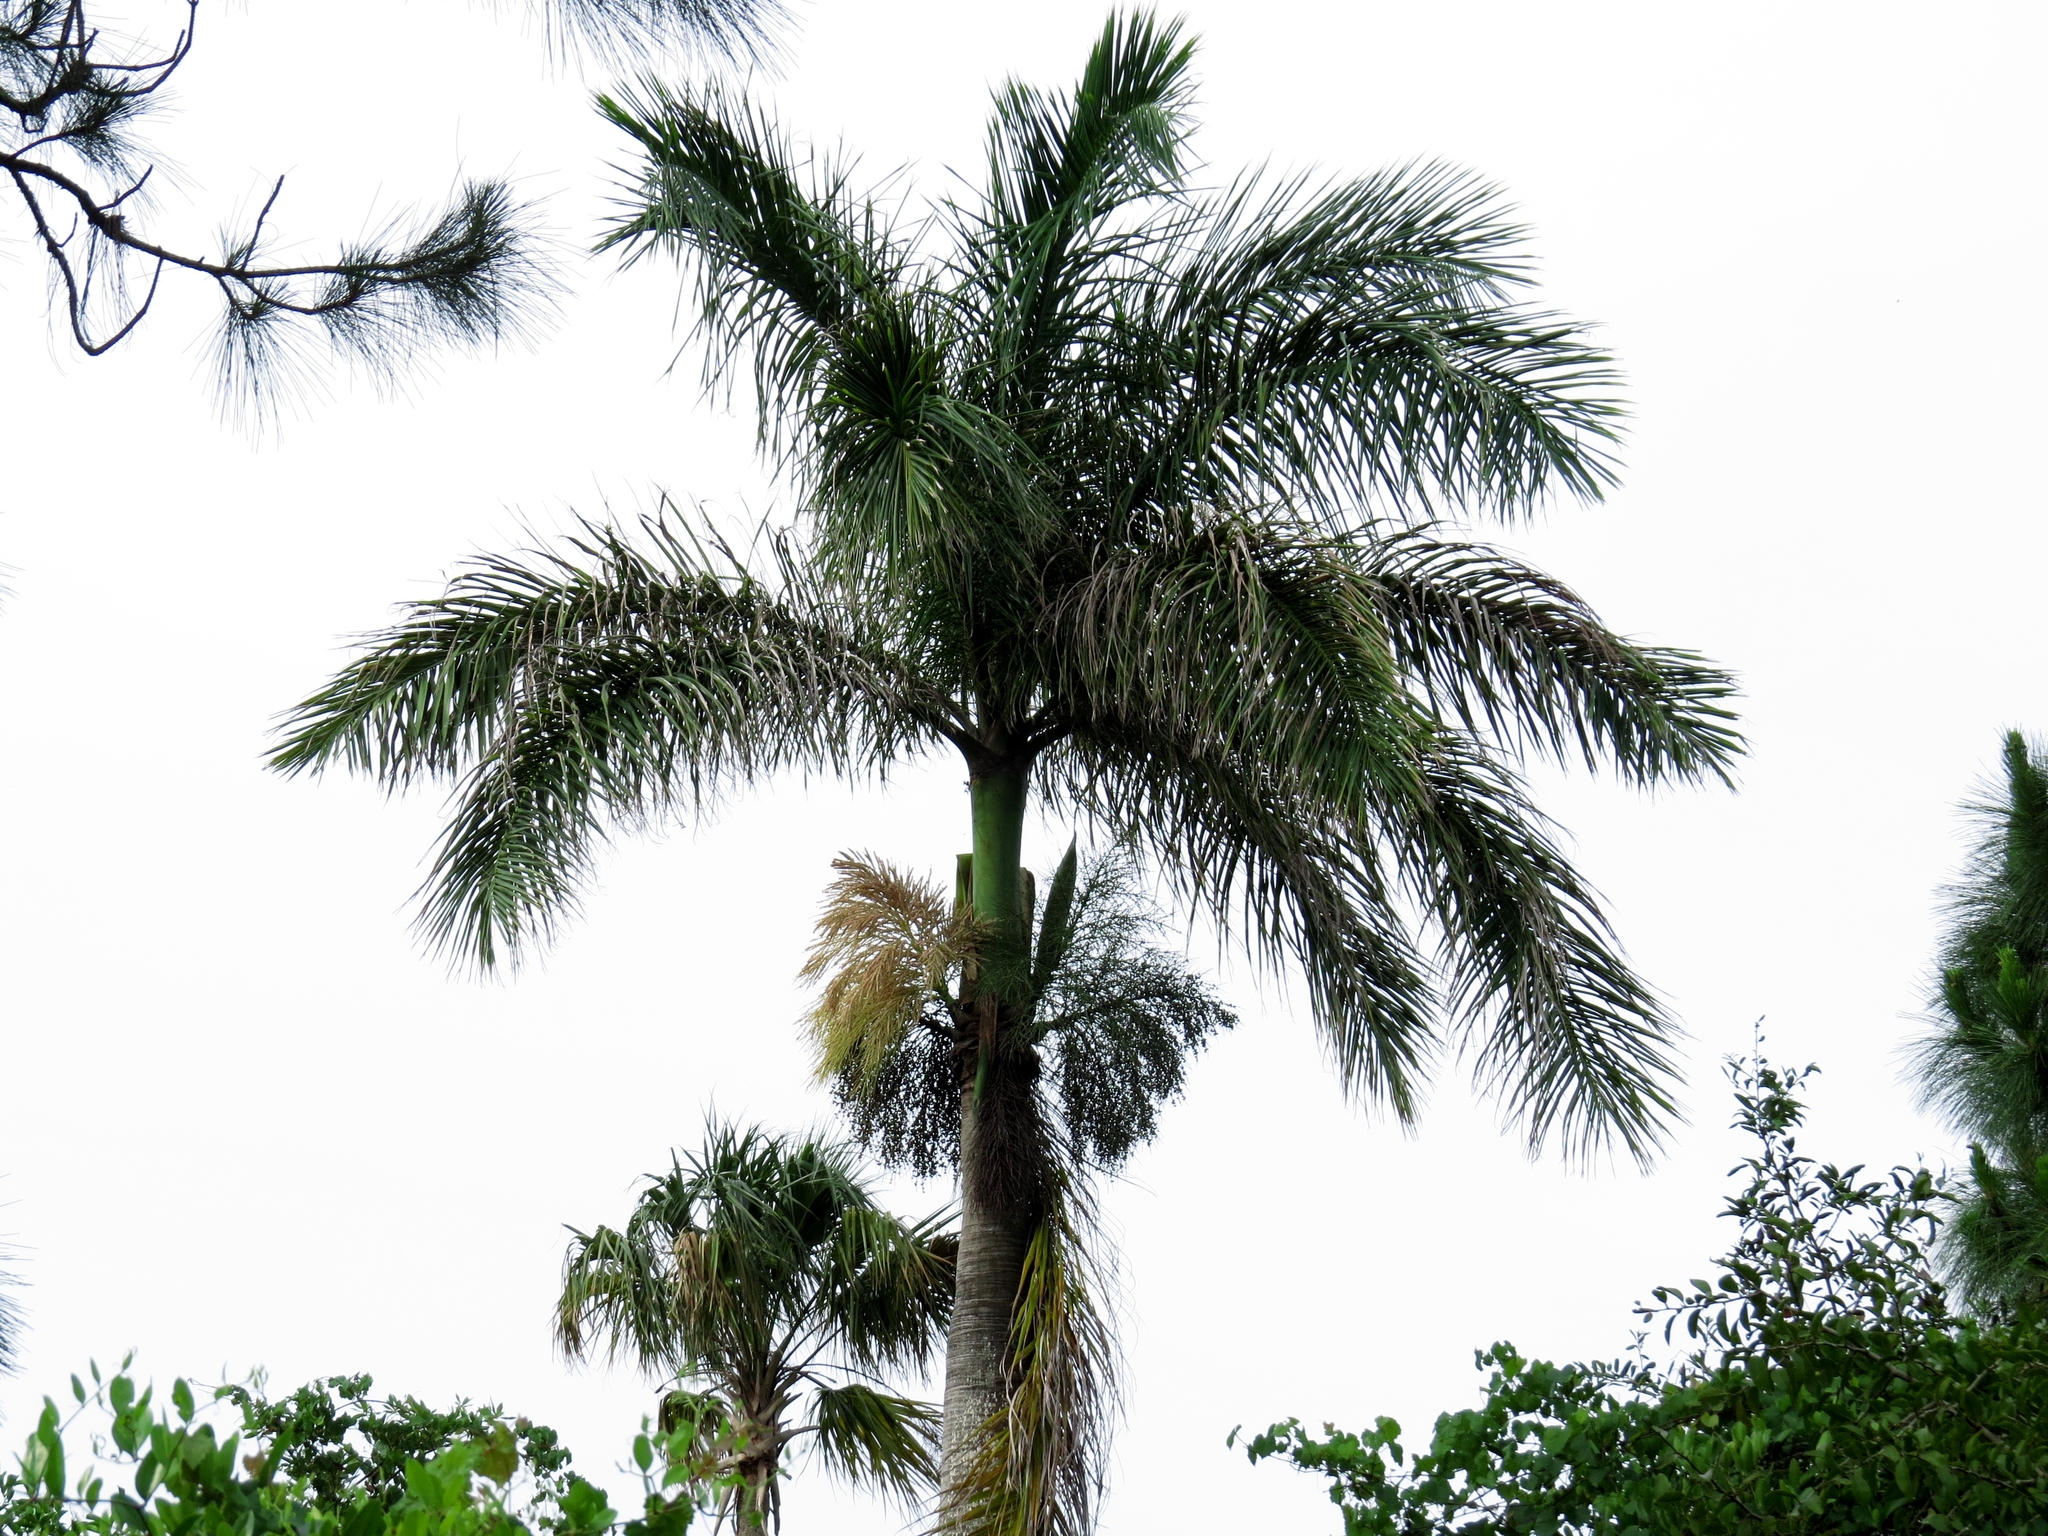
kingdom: Plantae
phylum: Tracheophyta
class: Liliopsida
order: Arecales
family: Arecaceae
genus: Roystonea
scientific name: Roystonea regia
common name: Florida royal palm
